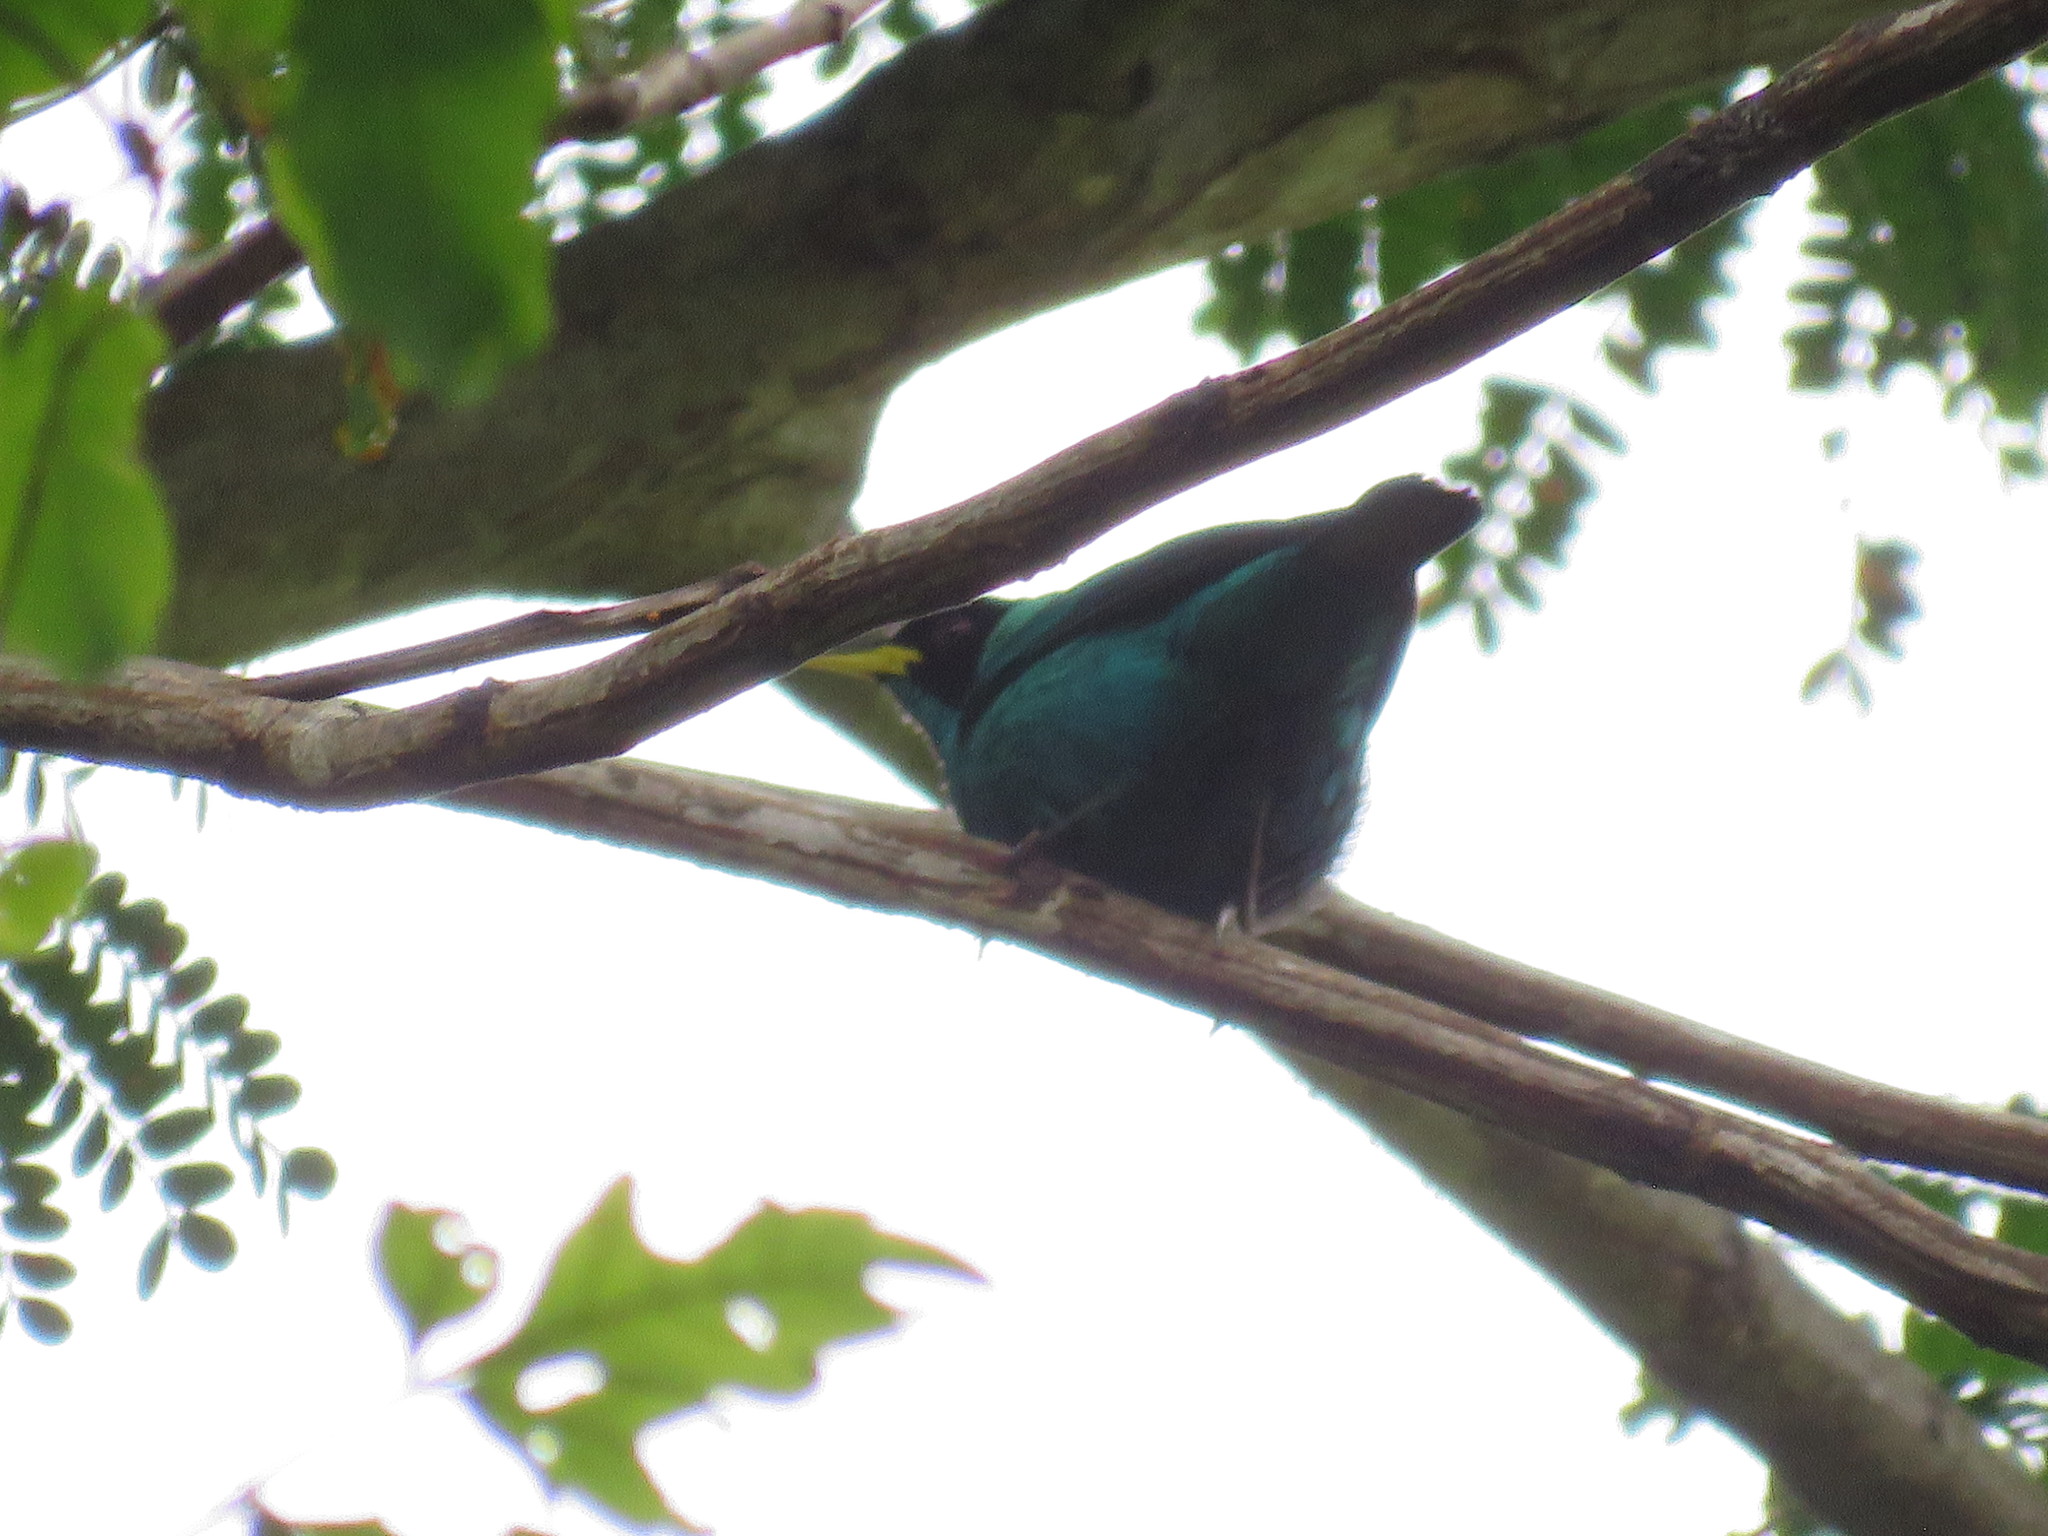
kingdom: Animalia
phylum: Chordata
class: Aves
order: Passeriformes
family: Thraupidae
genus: Chlorophanes
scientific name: Chlorophanes spiza
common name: Green honeycreeper
